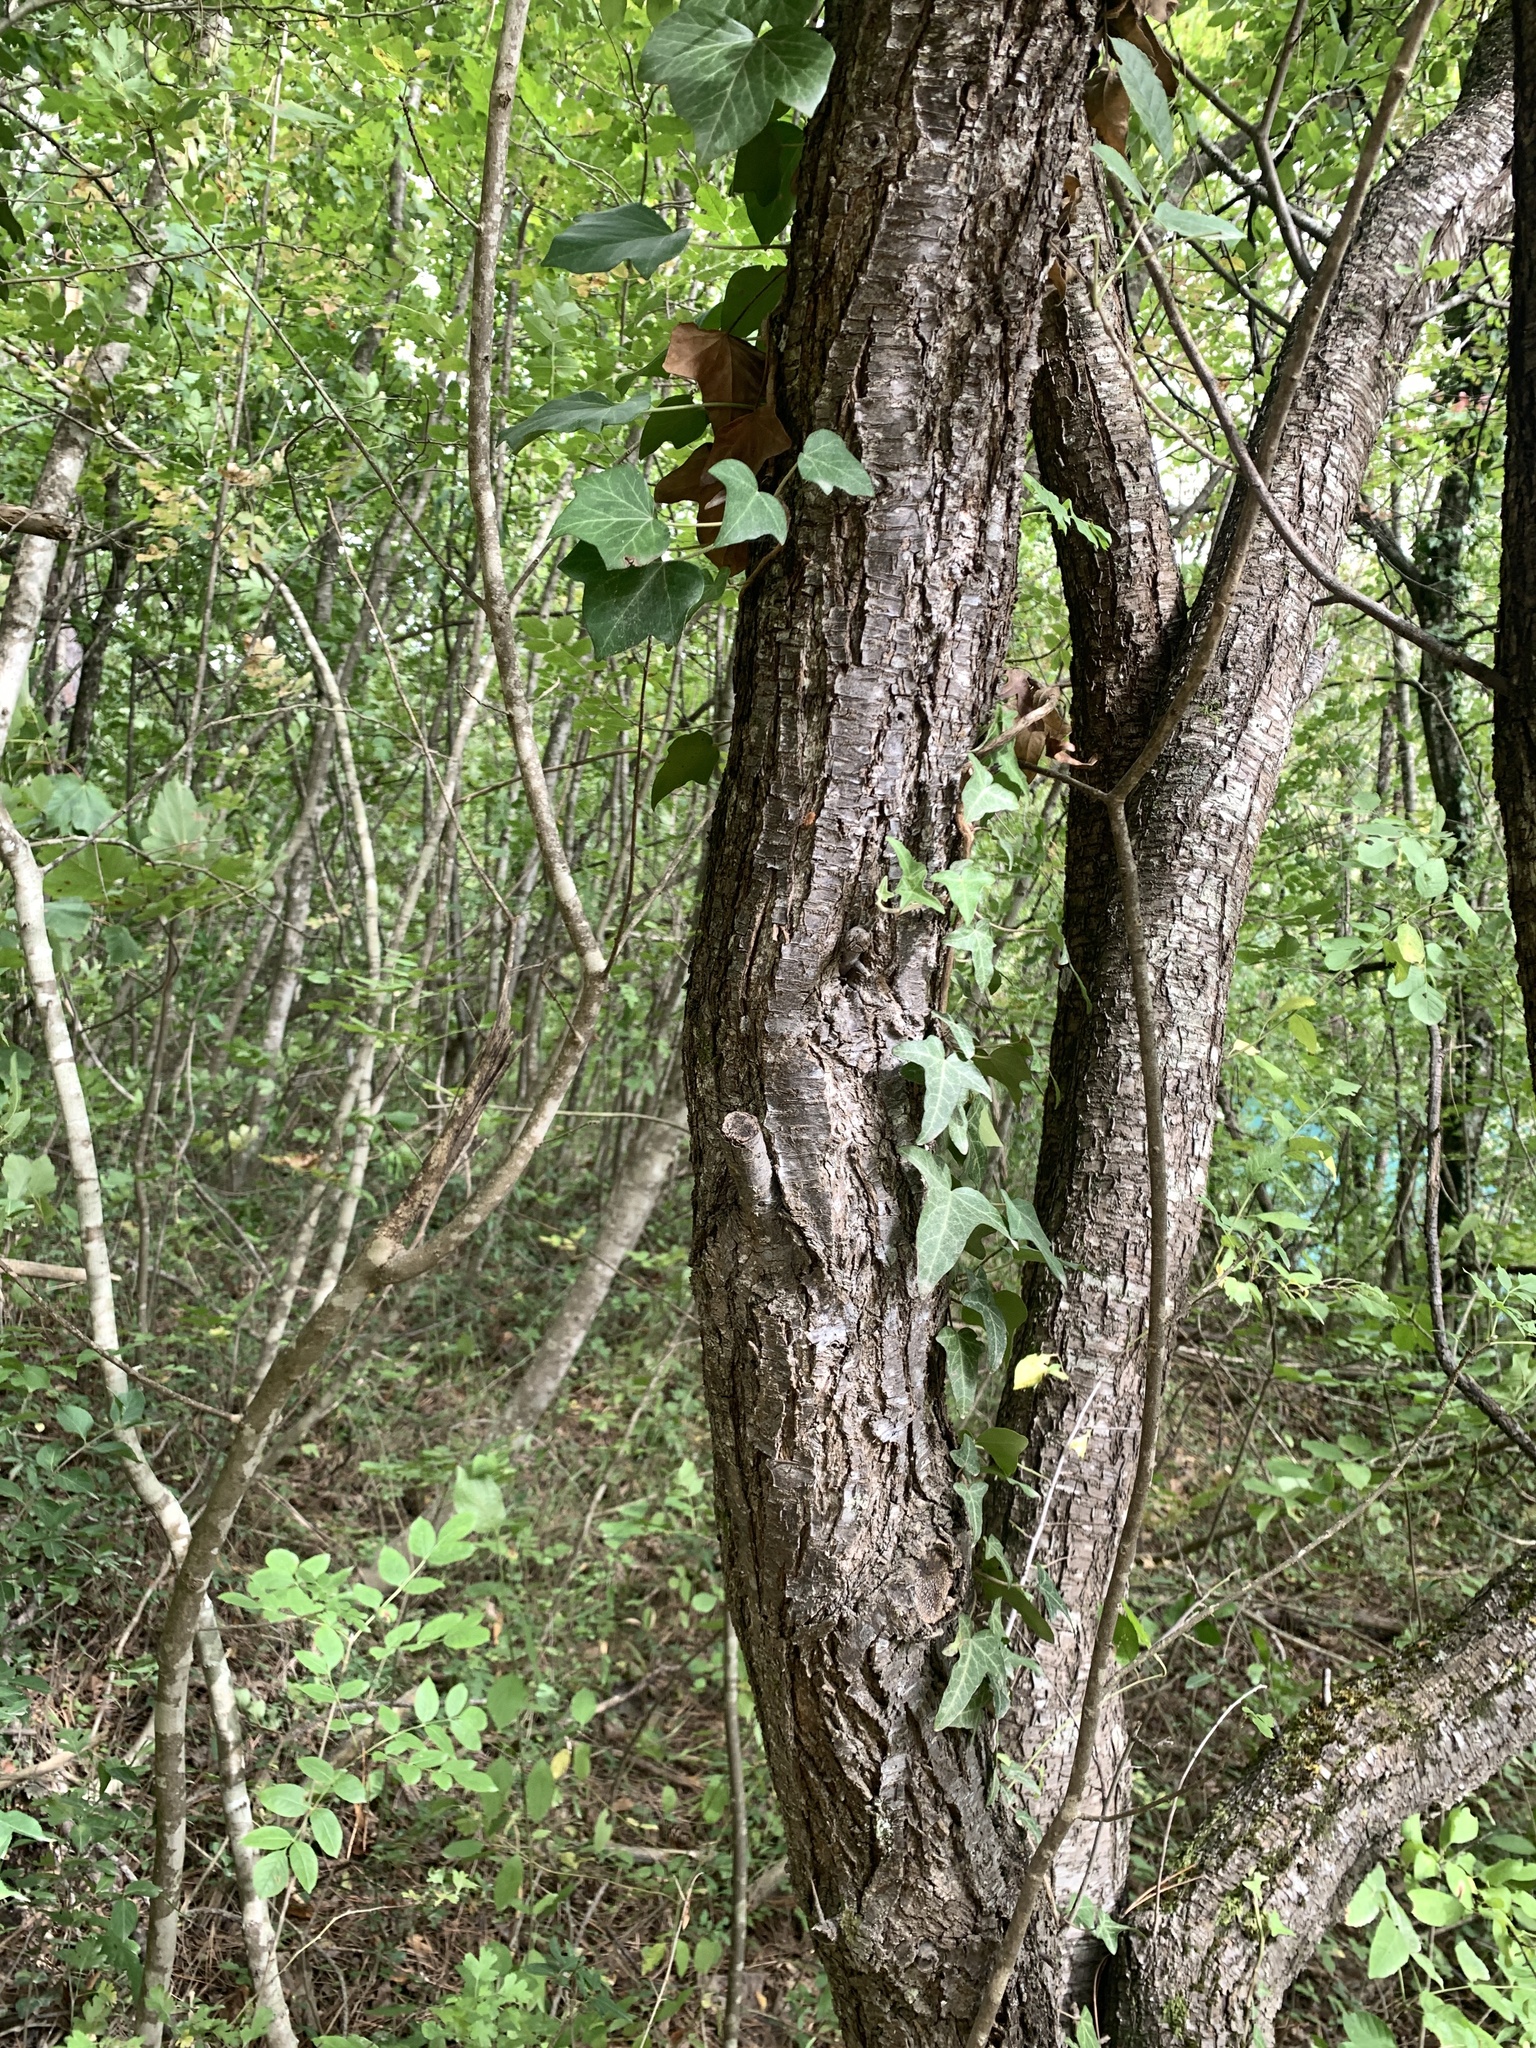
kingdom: Plantae
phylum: Tracheophyta
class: Magnoliopsida
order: Rosales
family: Rosaceae
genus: Prunus
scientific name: Prunus spinosa
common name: Blackthorn
